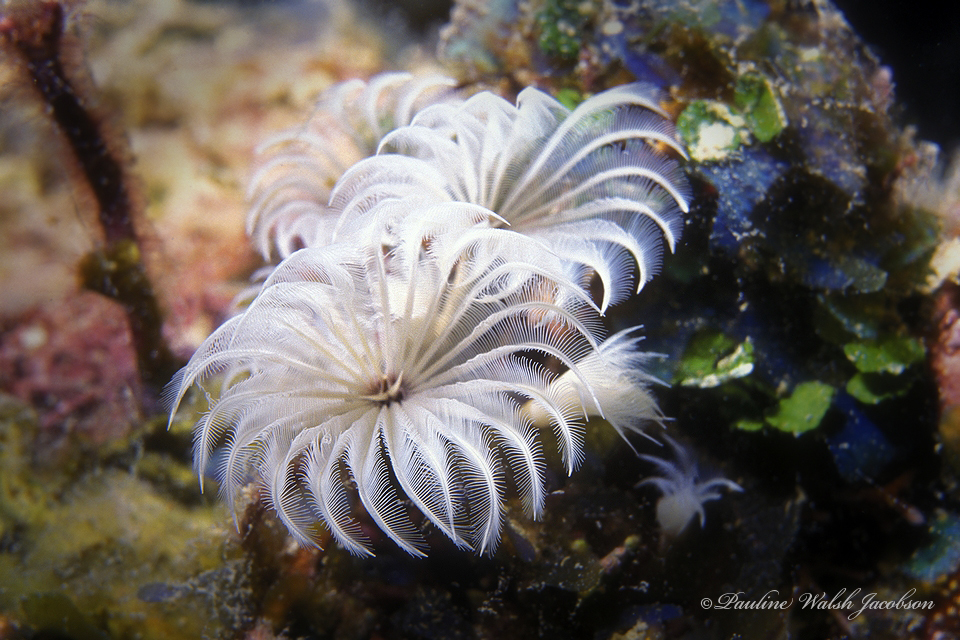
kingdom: Animalia
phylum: Annelida
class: Polychaeta
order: Sabellida
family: Sabellidae
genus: Bispira
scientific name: Bispira brunnea
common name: Social feather duster
